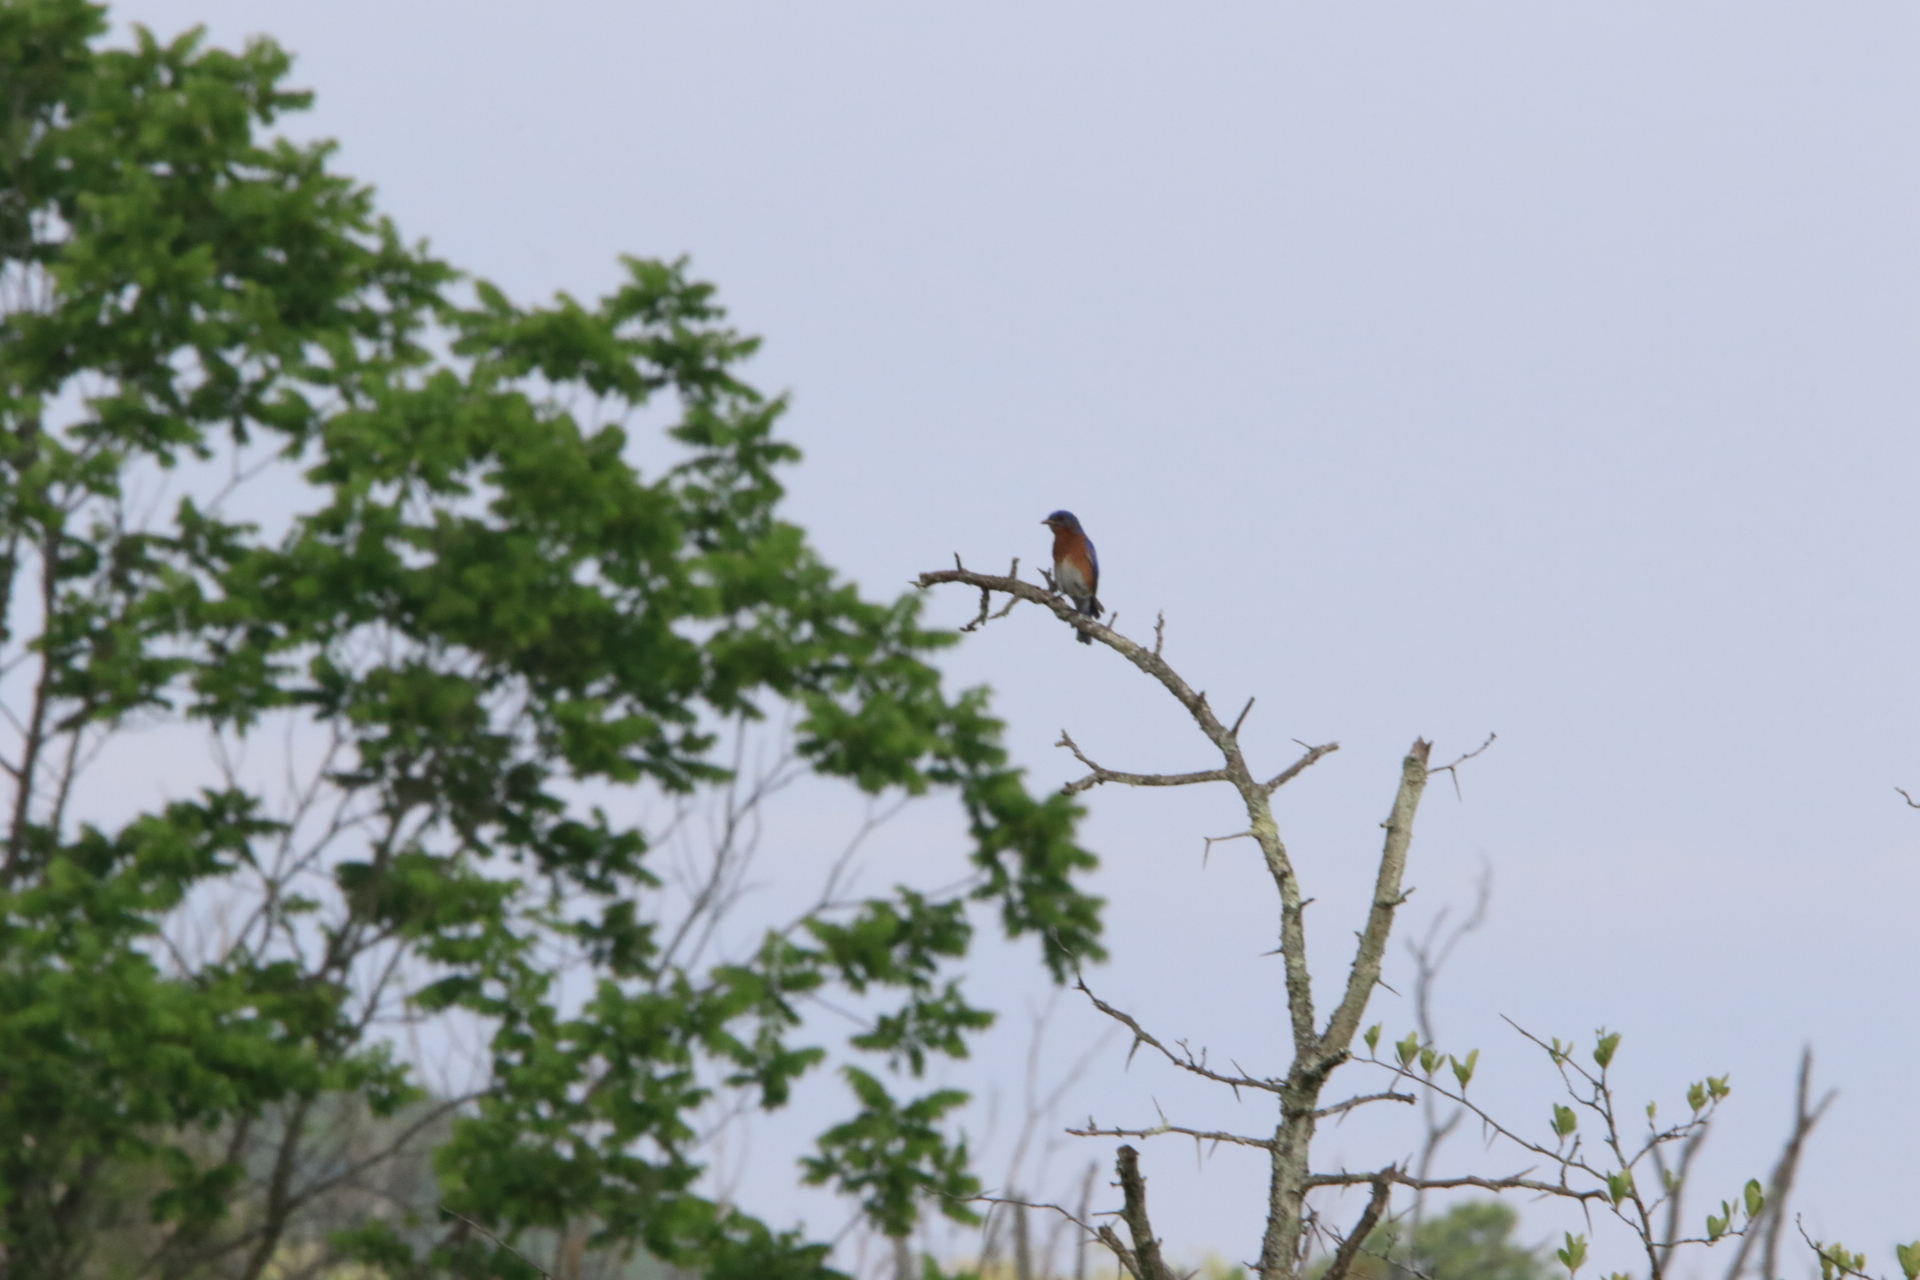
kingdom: Animalia
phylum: Chordata
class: Aves
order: Passeriformes
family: Turdidae
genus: Sialia
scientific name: Sialia sialis
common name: Eastern bluebird
